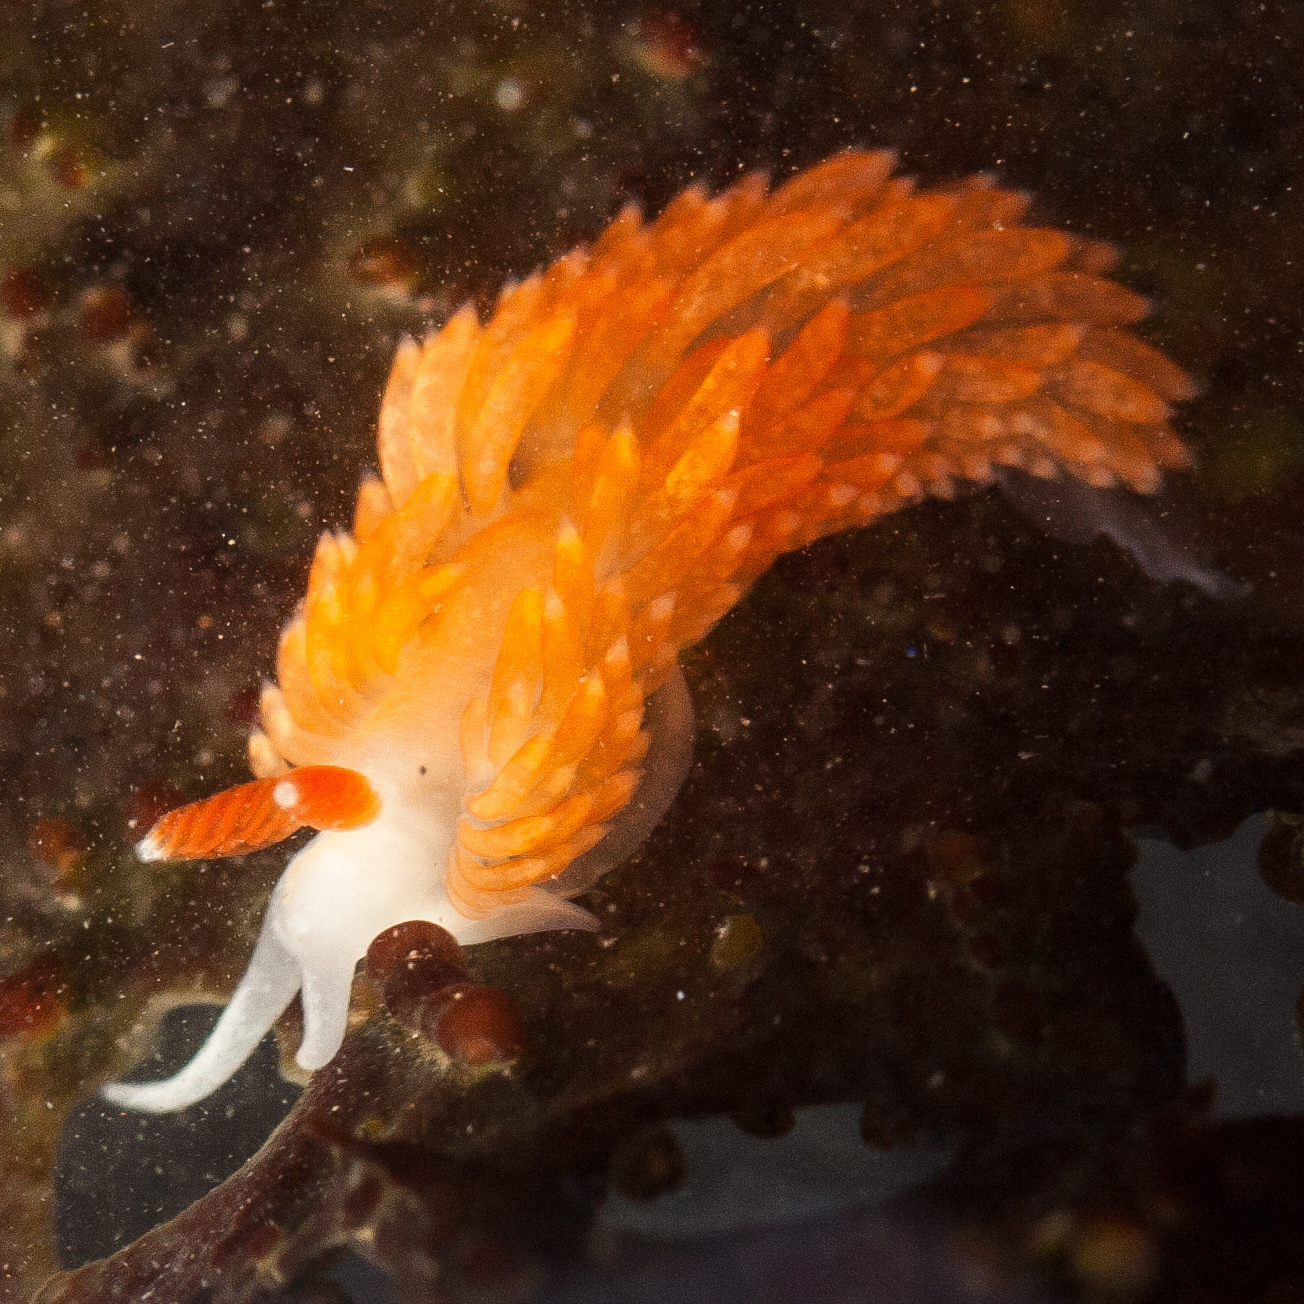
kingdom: Animalia
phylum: Mollusca
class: Gastropoda
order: Nudibranchia
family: Aeolidiidae
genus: Anteaeolidiella
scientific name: Anteaeolidiella oliviae
